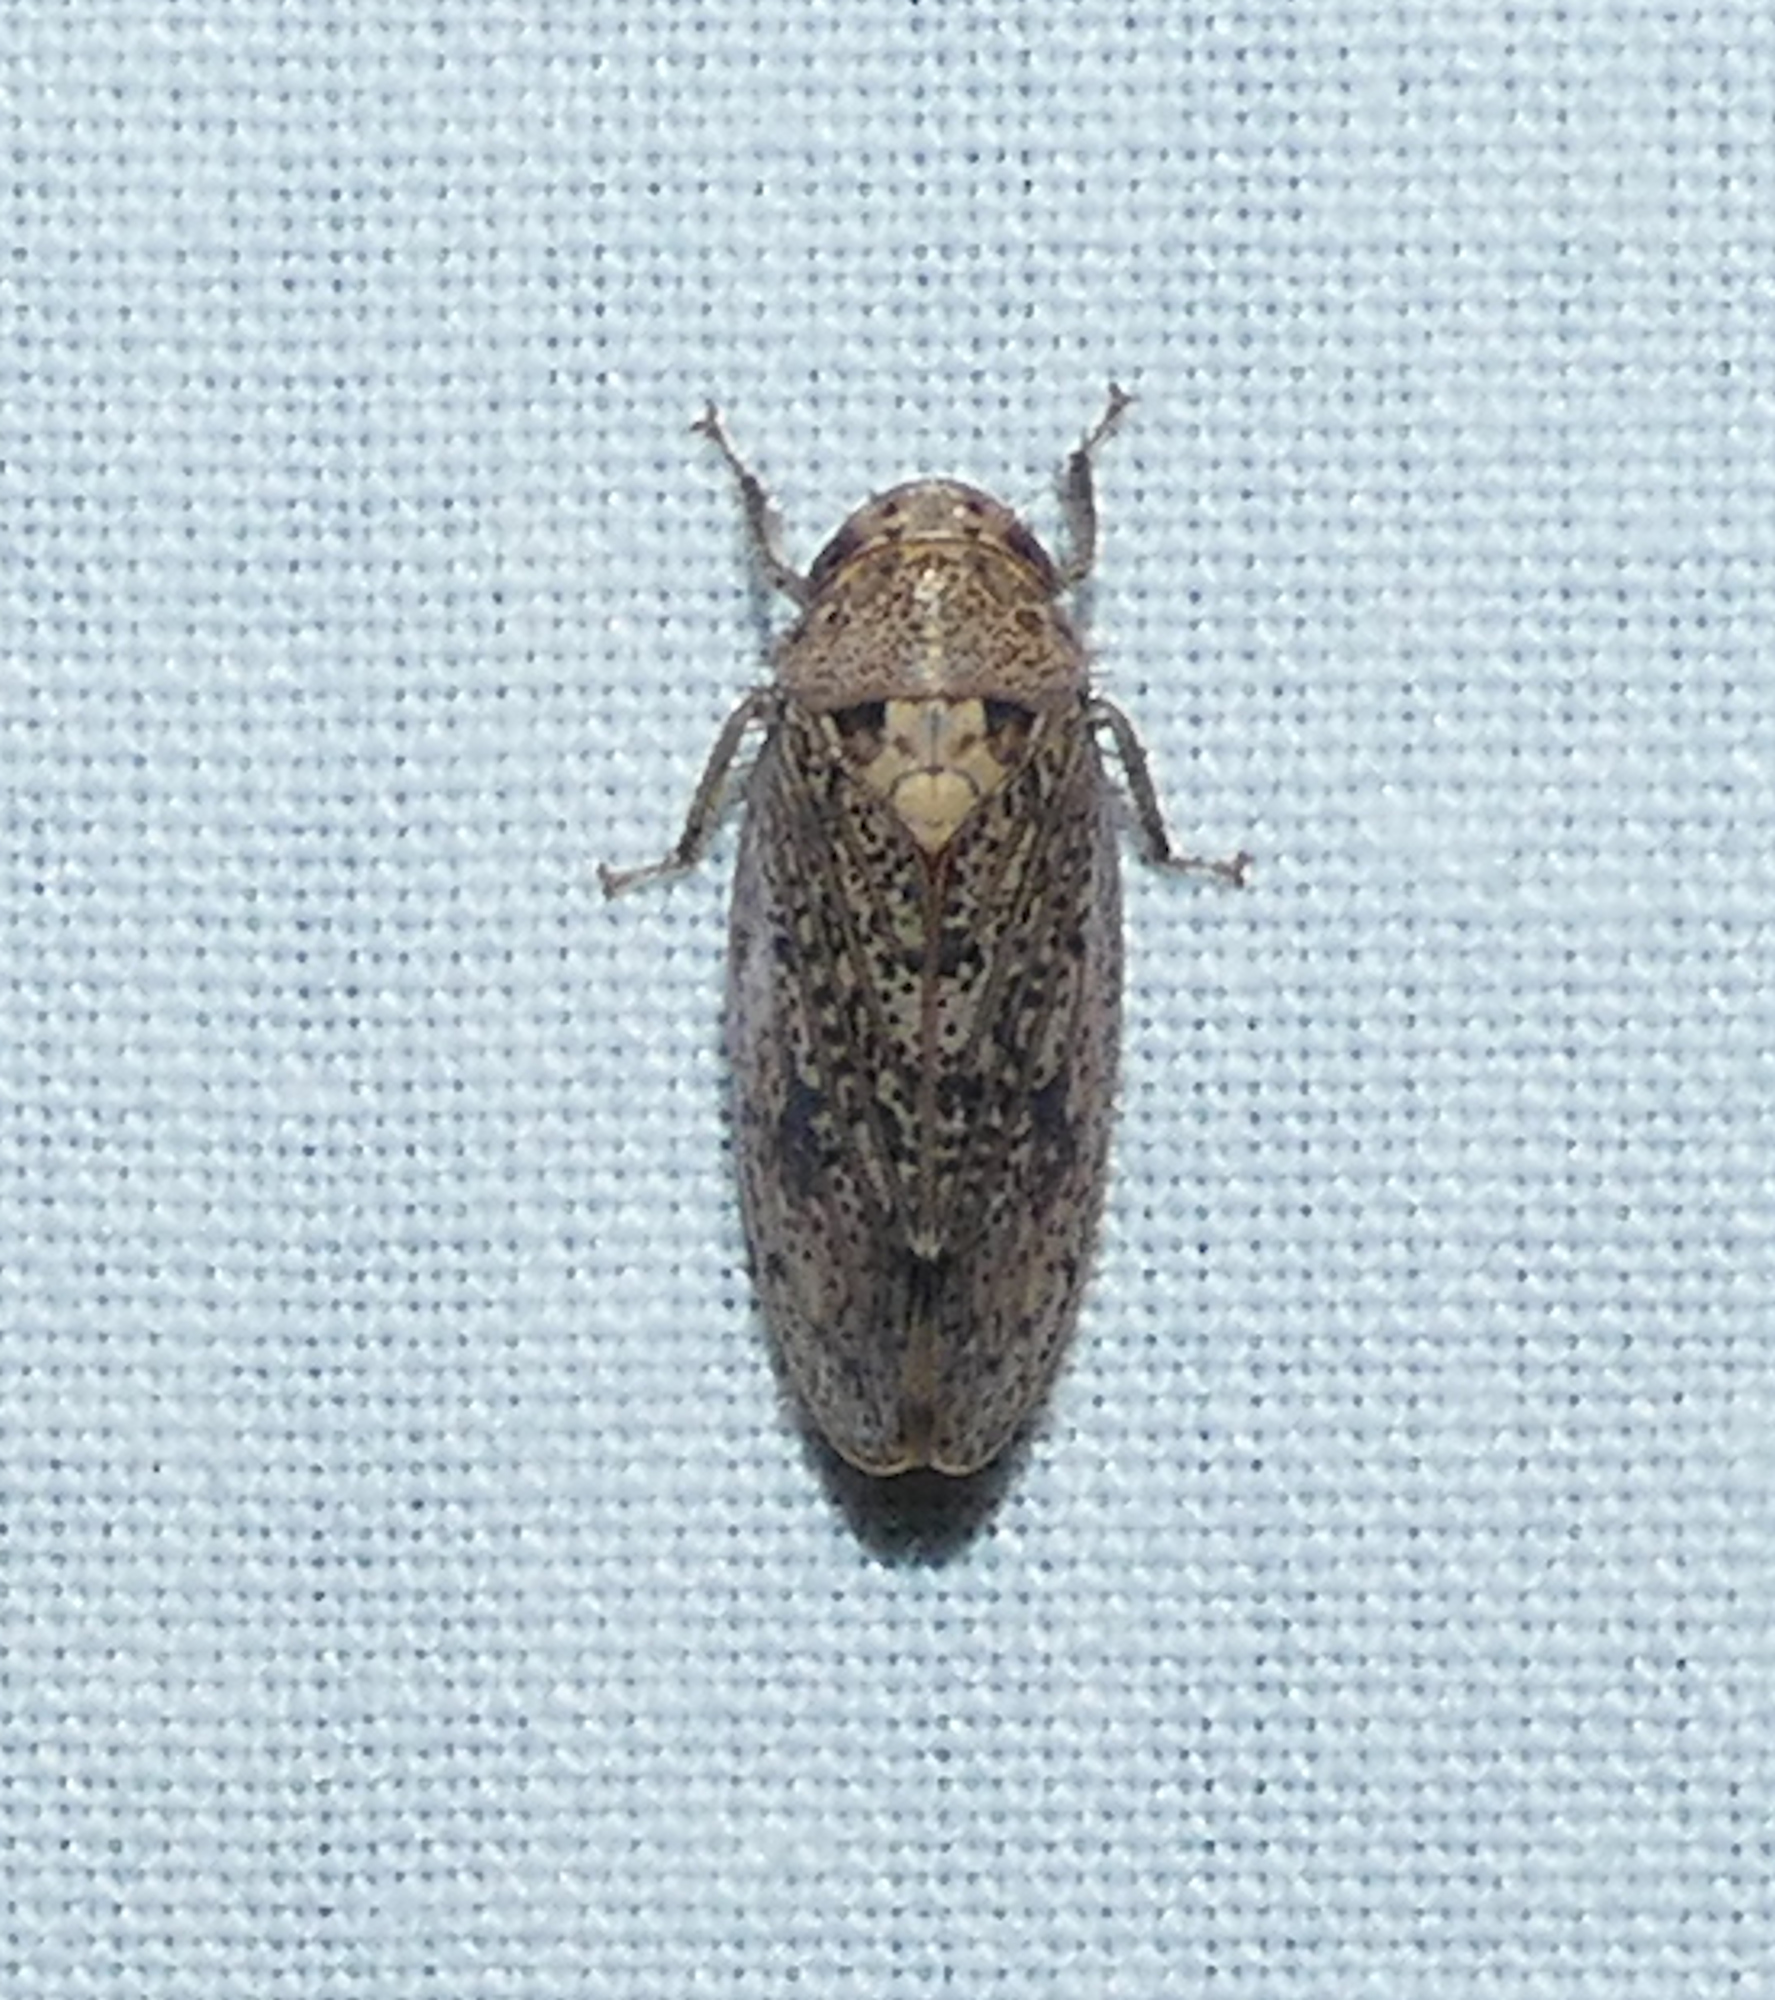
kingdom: Animalia
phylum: Arthropoda
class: Insecta
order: Hemiptera
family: Cicadellidae
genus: Ponana
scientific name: Ponana puncticollis
